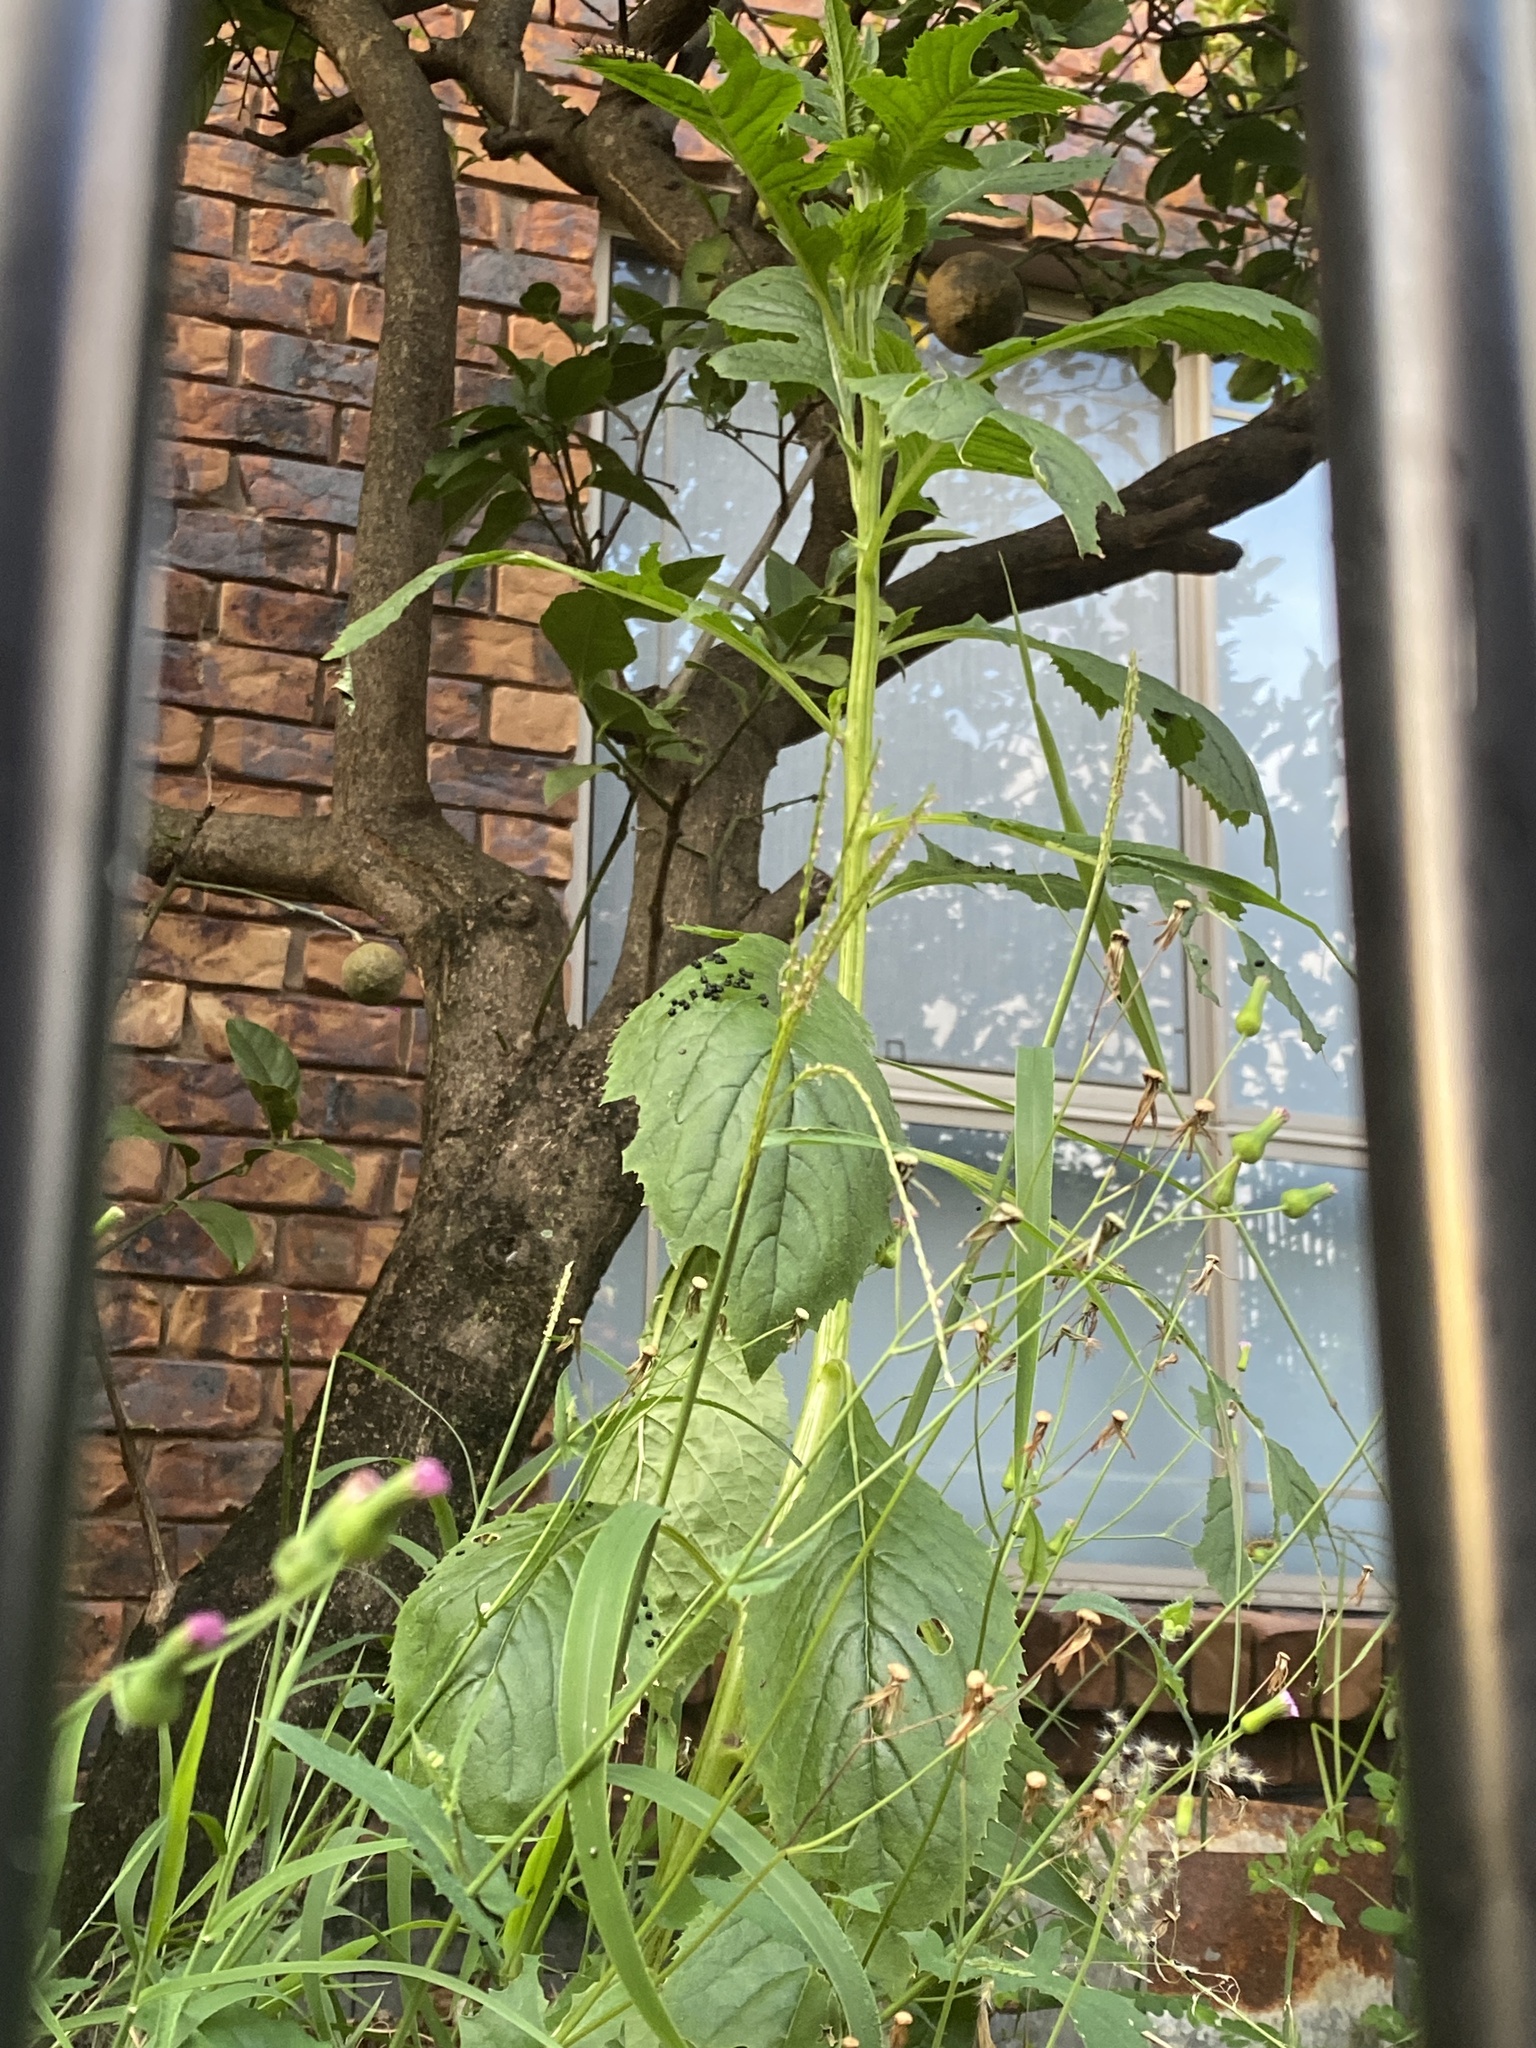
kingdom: Plantae
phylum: Tracheophyta
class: Magnoliopsida
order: Asterales
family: Asteraceae
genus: Crassocephalum
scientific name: Crassocephalum crepidioides
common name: Redflower ragleaf
